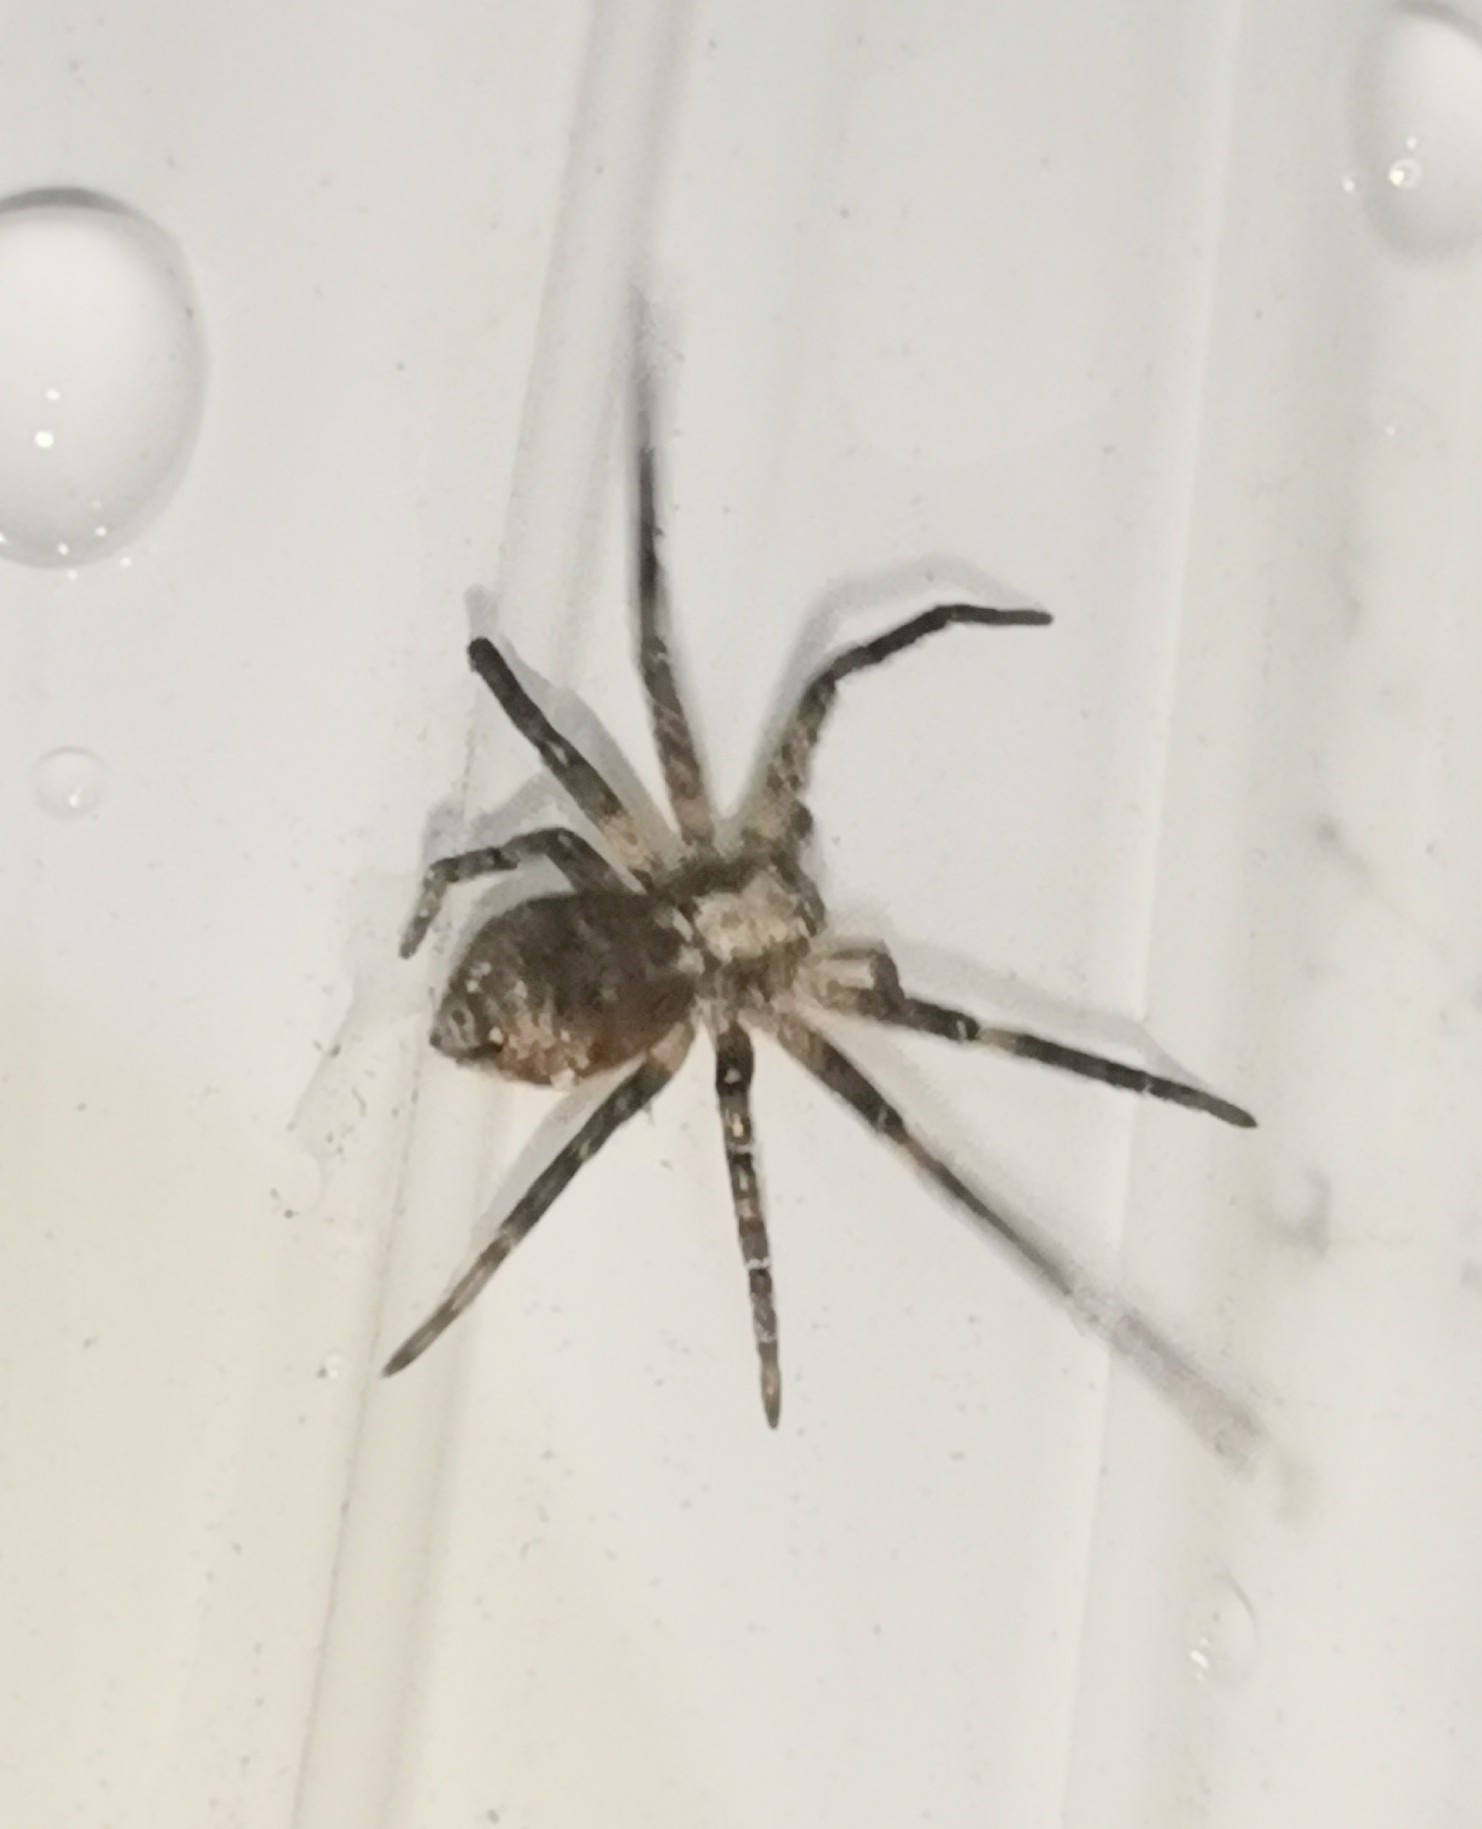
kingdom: Animalia
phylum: Arthropoda
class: Arachnida
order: Araneae
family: Philodromidae
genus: Philodromus
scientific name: Philodromus
